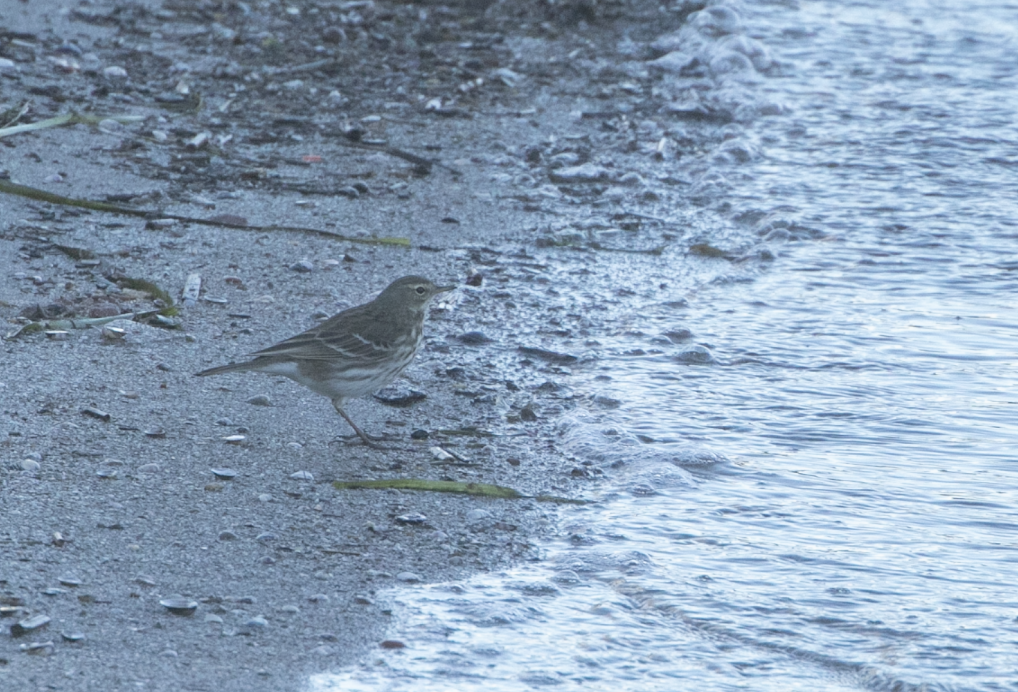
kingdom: Animalia
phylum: Chordata
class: Aves
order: Passeriformes
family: Motacillidae
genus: Anthus
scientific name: Anthus spinoletta
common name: Water pipit
